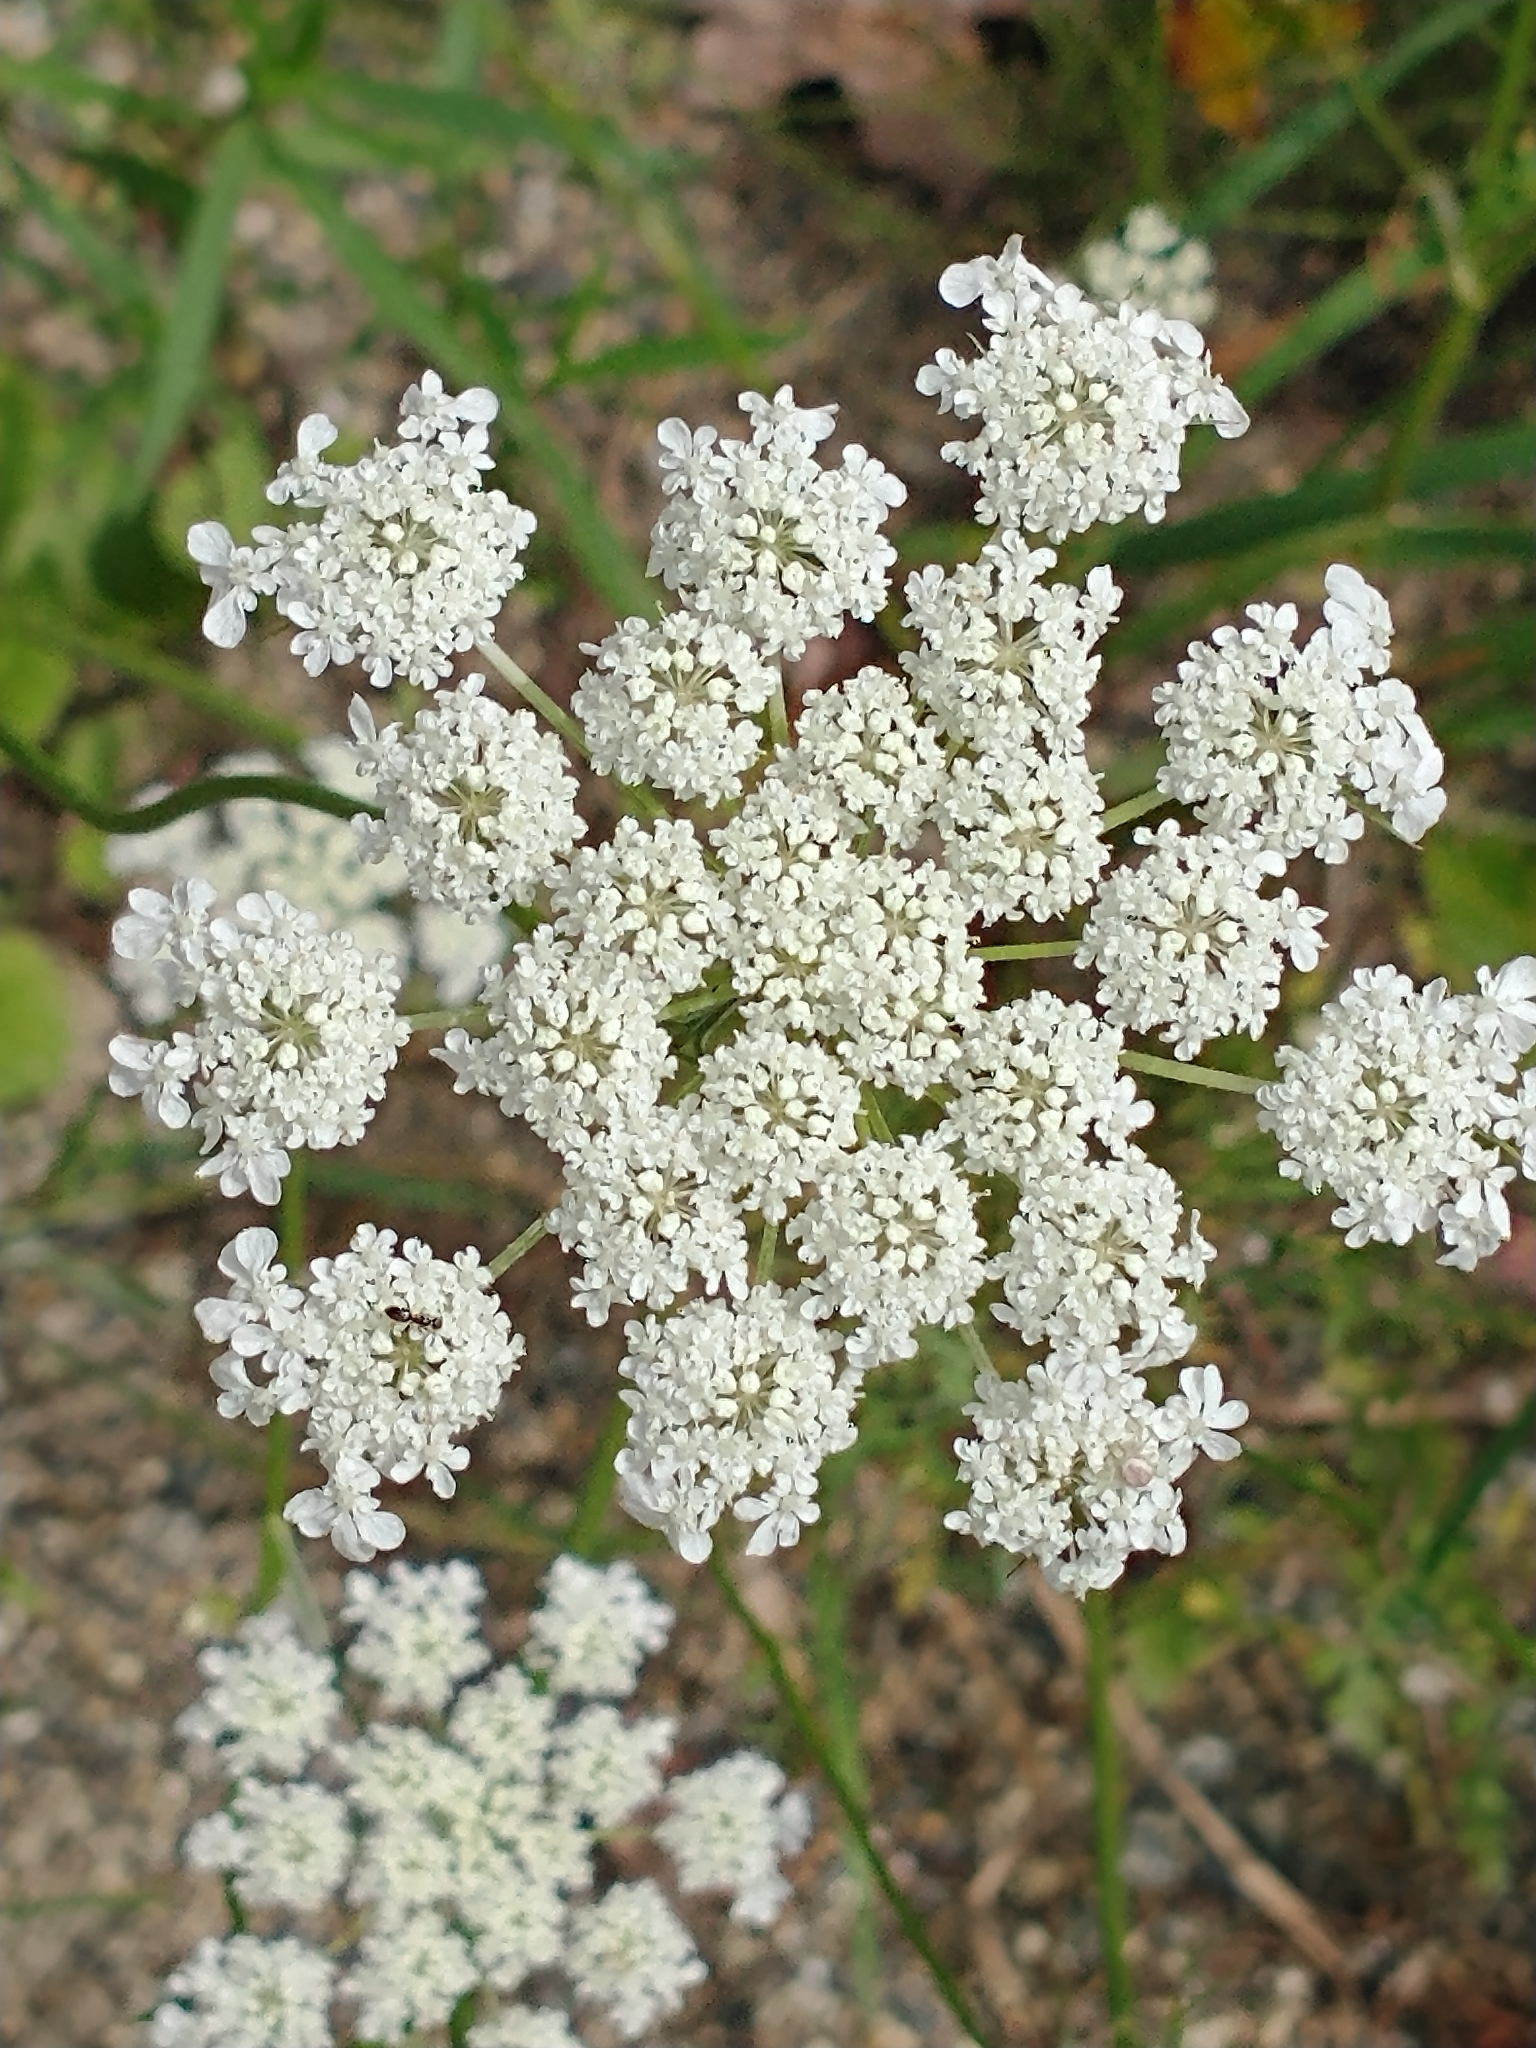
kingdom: Plantae
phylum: Tracheophyta
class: Magnoliopsida
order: Apiales
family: Apiaceae
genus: Daucus
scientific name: Daucus carota
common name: Wild carrot
